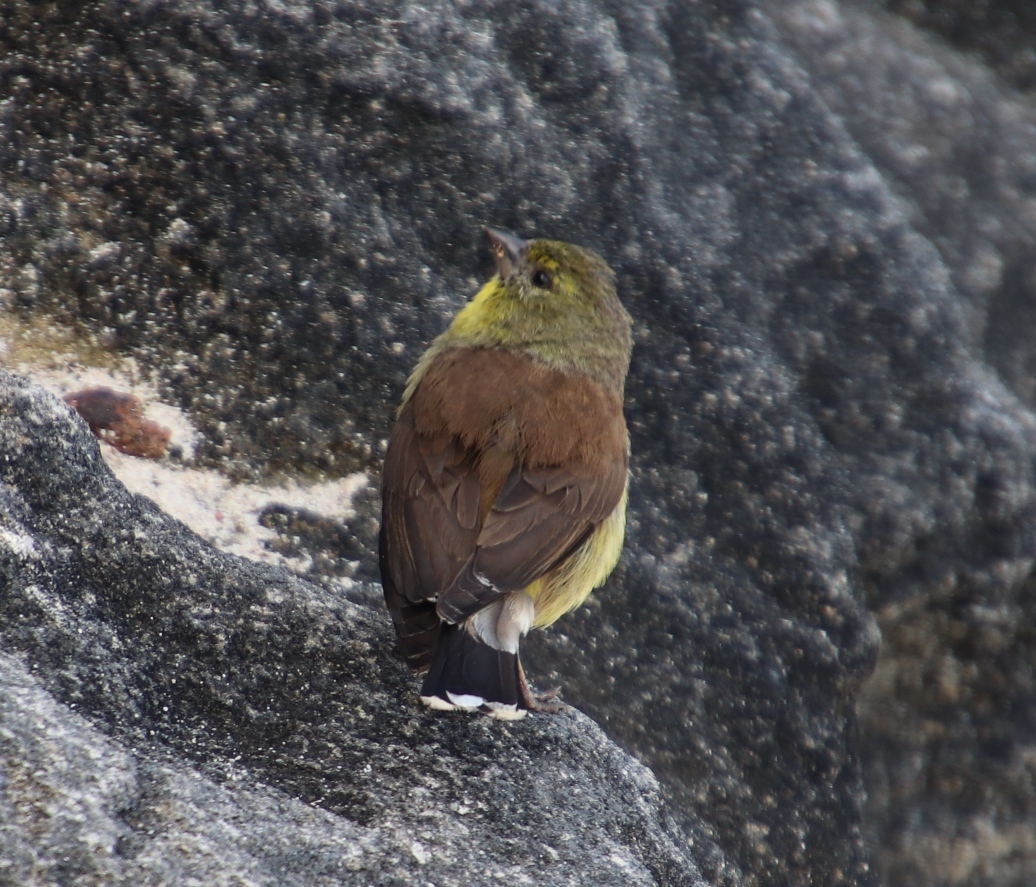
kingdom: Animalia
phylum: Chordata
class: Aves
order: Passeriformes
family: Fringillidae
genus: Crithagra
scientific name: Crithagra totta
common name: Cape siskin
